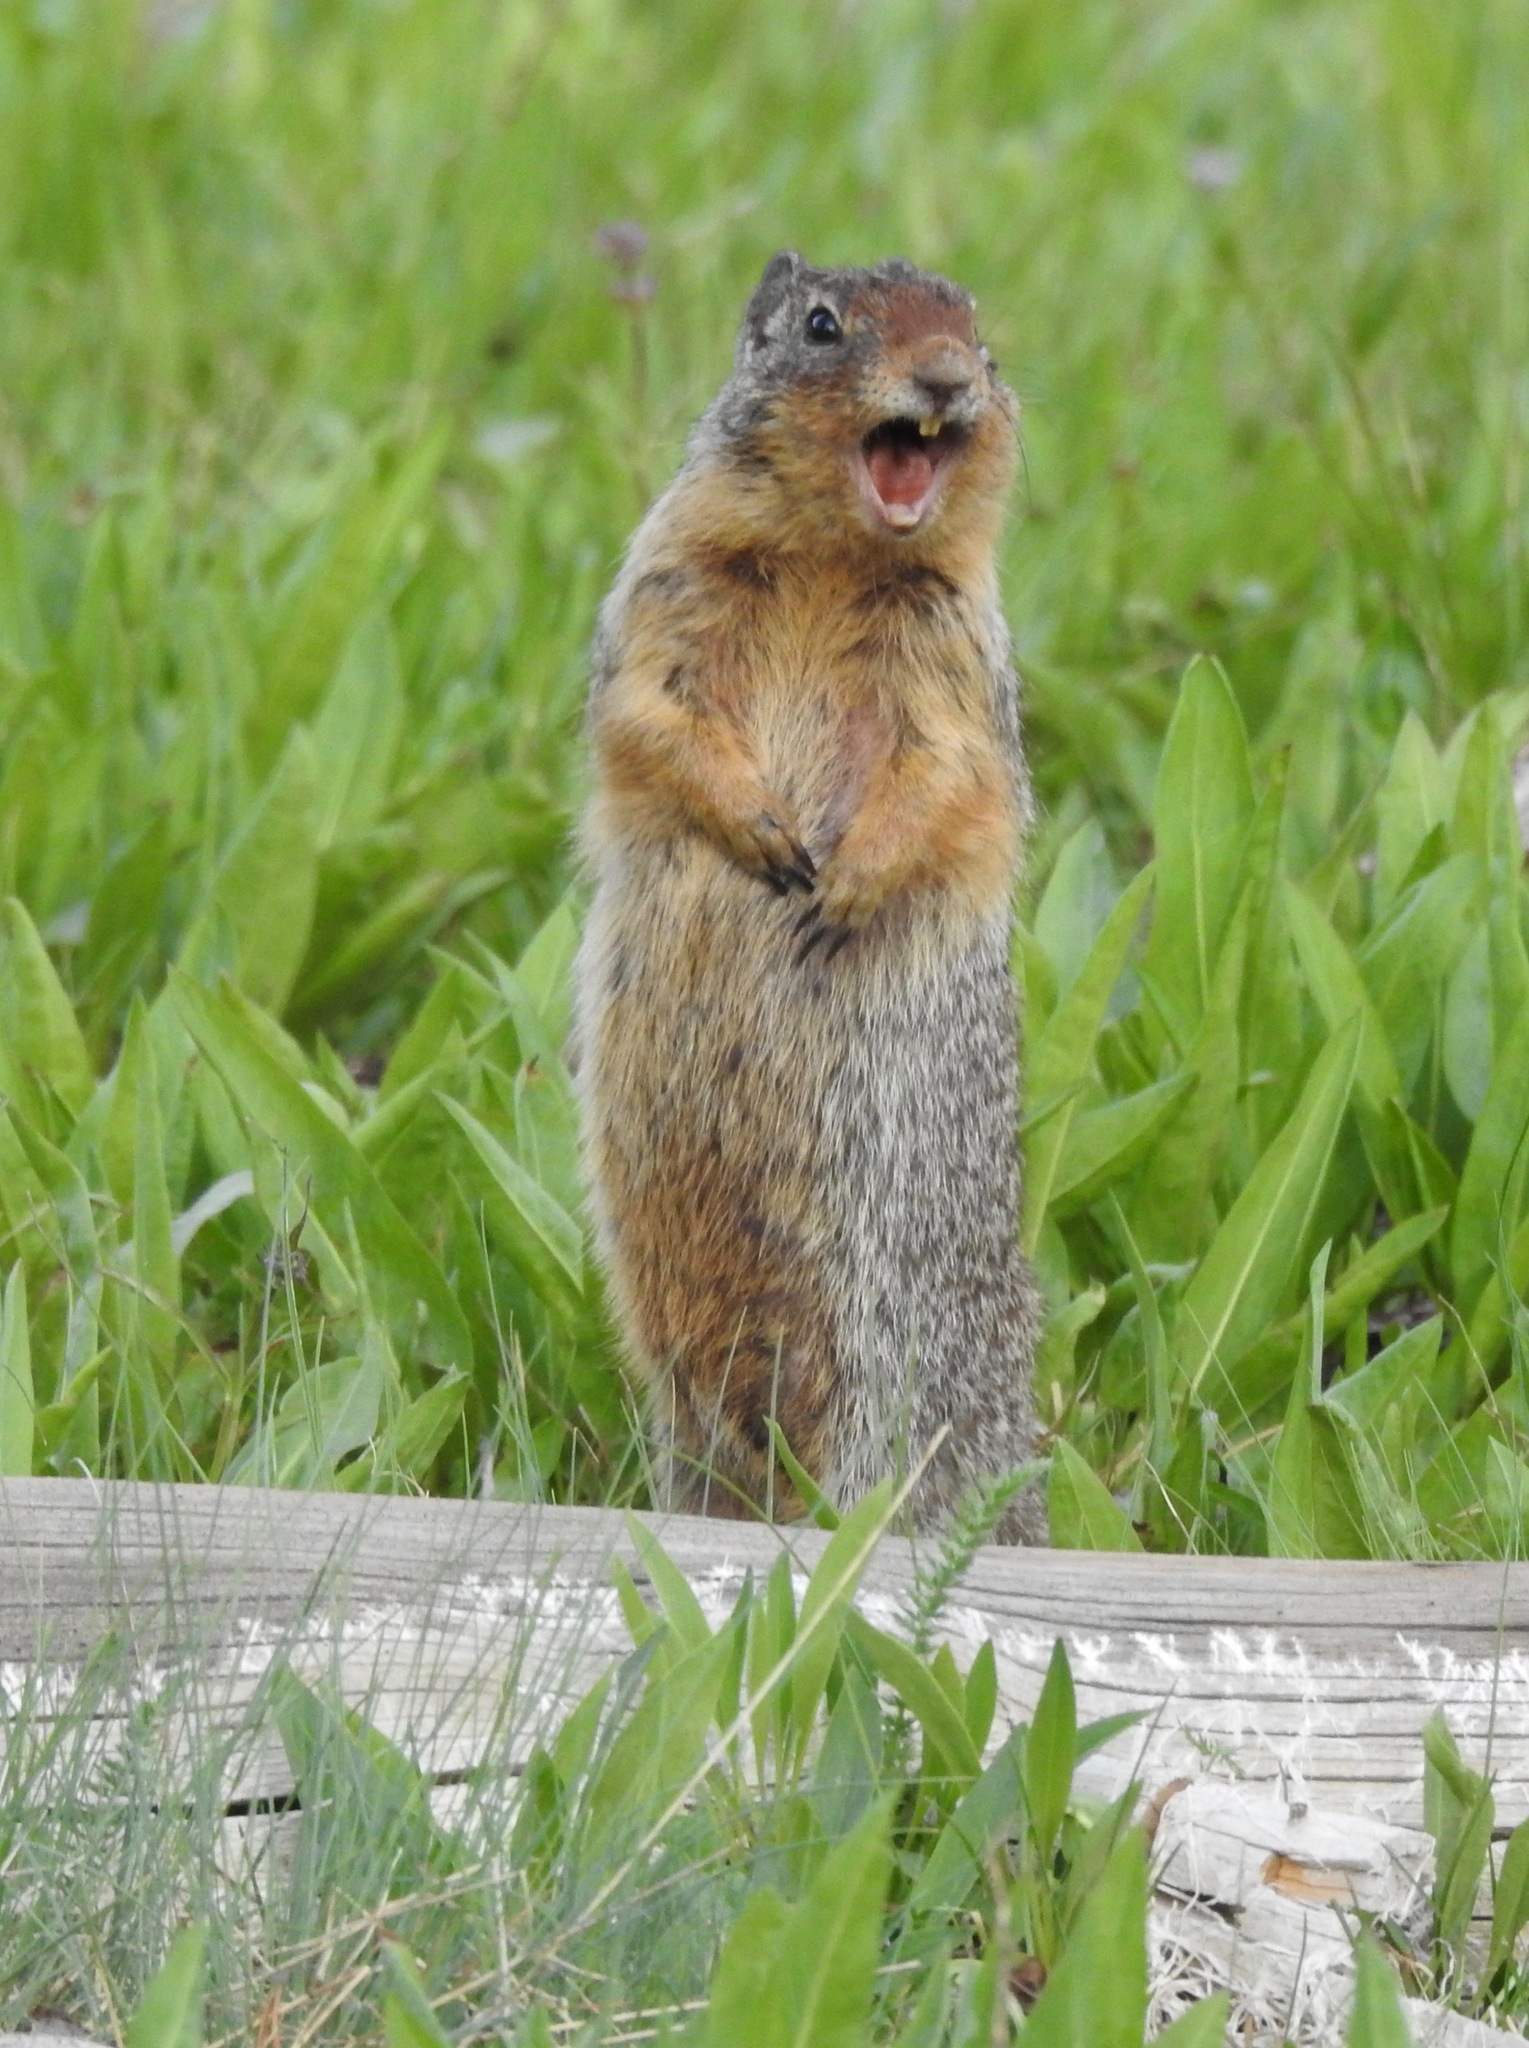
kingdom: Animalia
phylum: Chordata
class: Mammalia
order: Rodentia
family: Sciuridae
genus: Urocitellus
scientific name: Urocitellus columbianus
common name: Columbian ground squirrel
